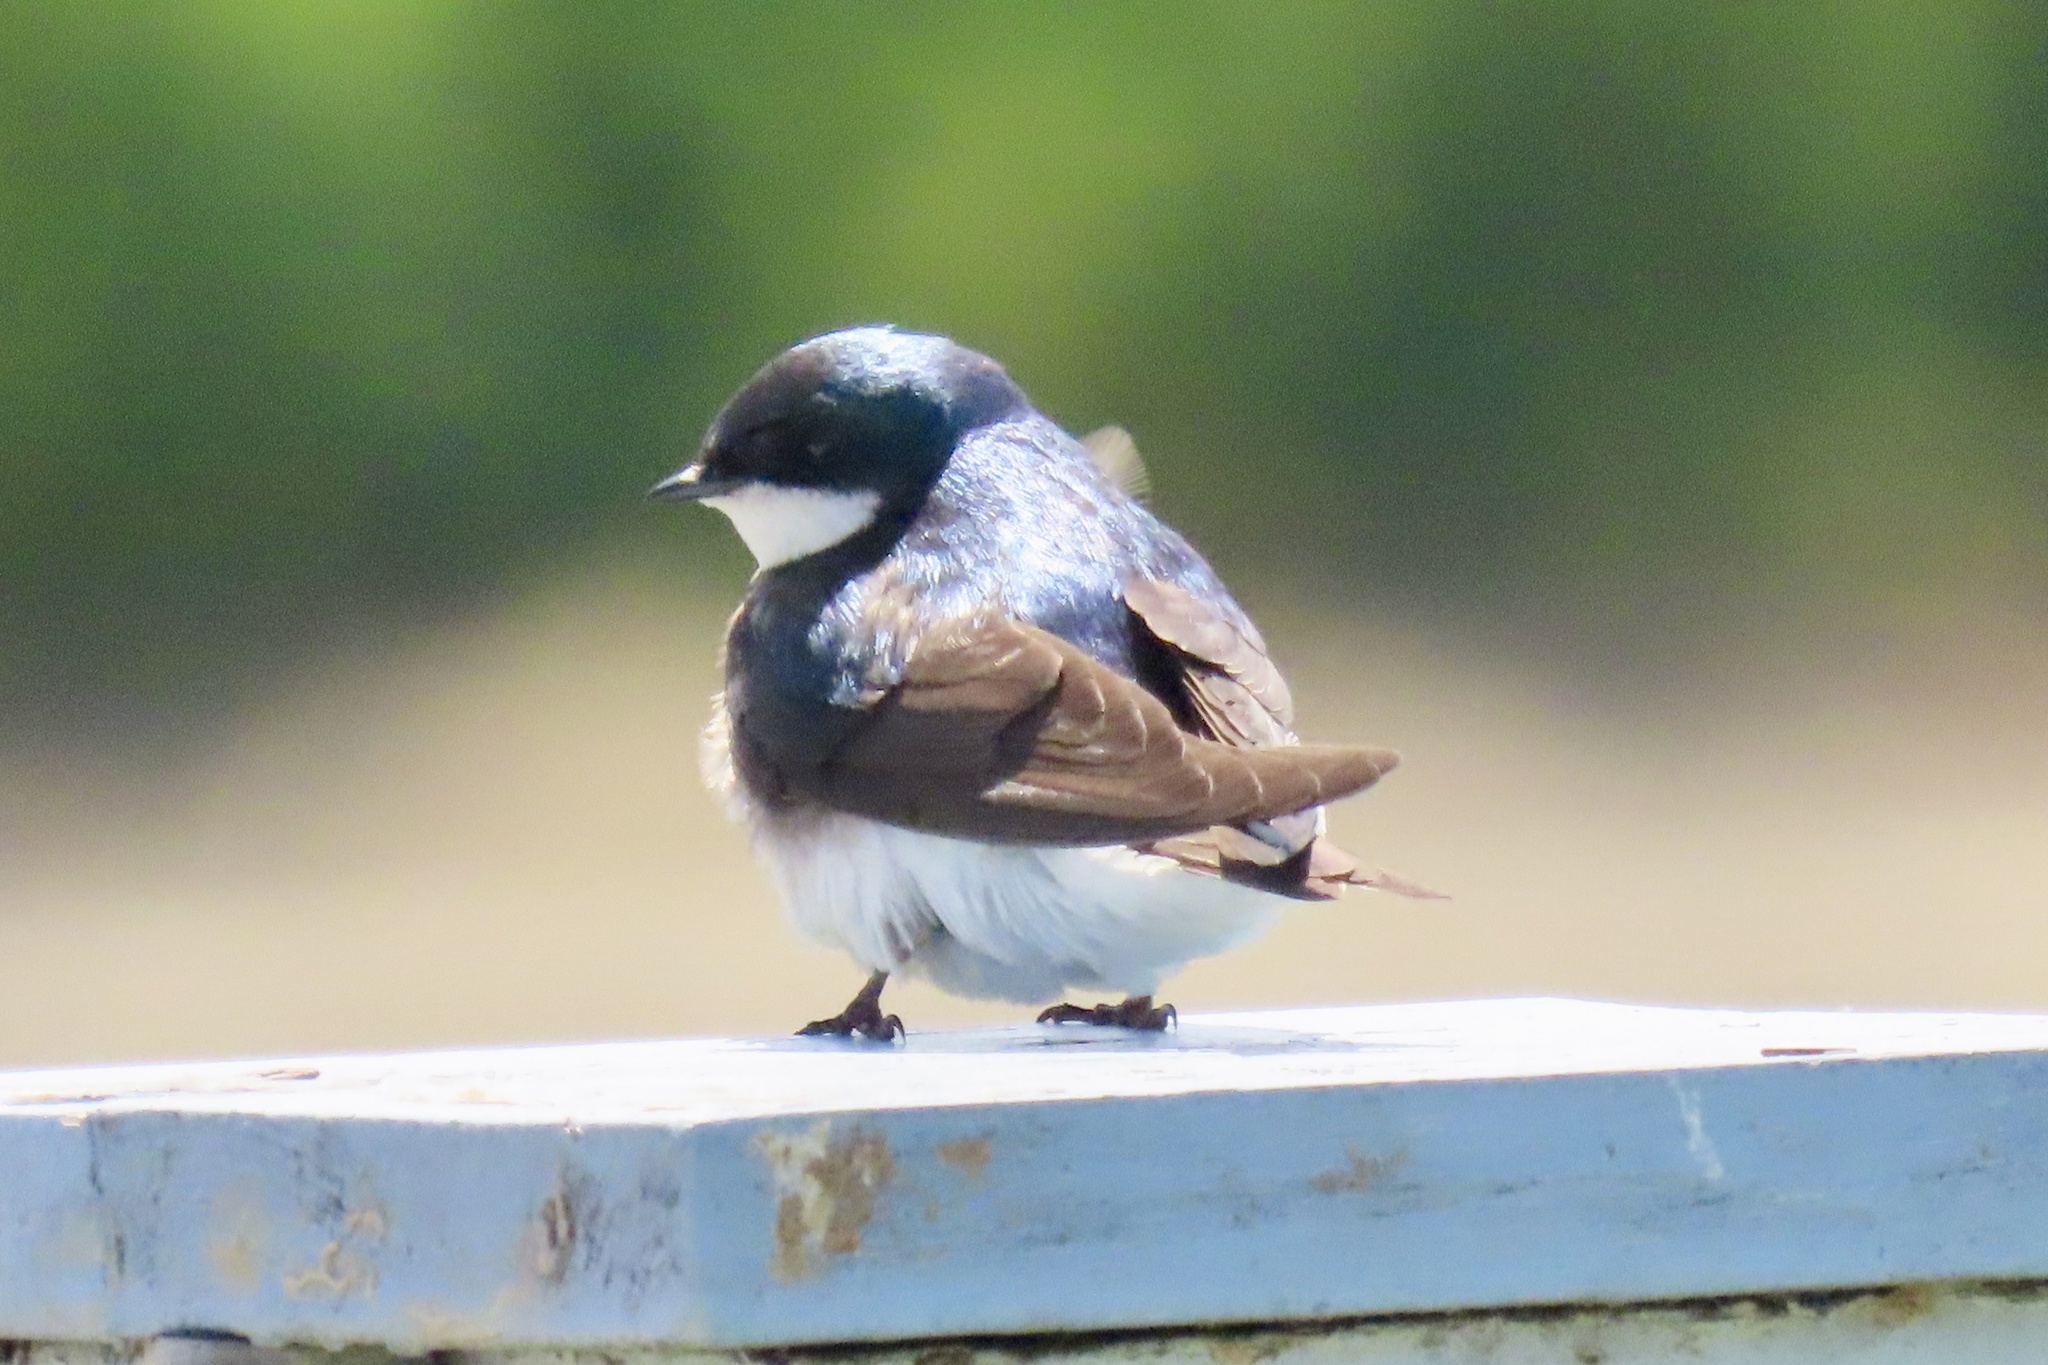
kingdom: Animalia
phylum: Chordata
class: Aves
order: Passeriformes
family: Hirundinidae
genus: Tachycineta
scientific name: Tachycineta bicolor
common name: Tree swallow
